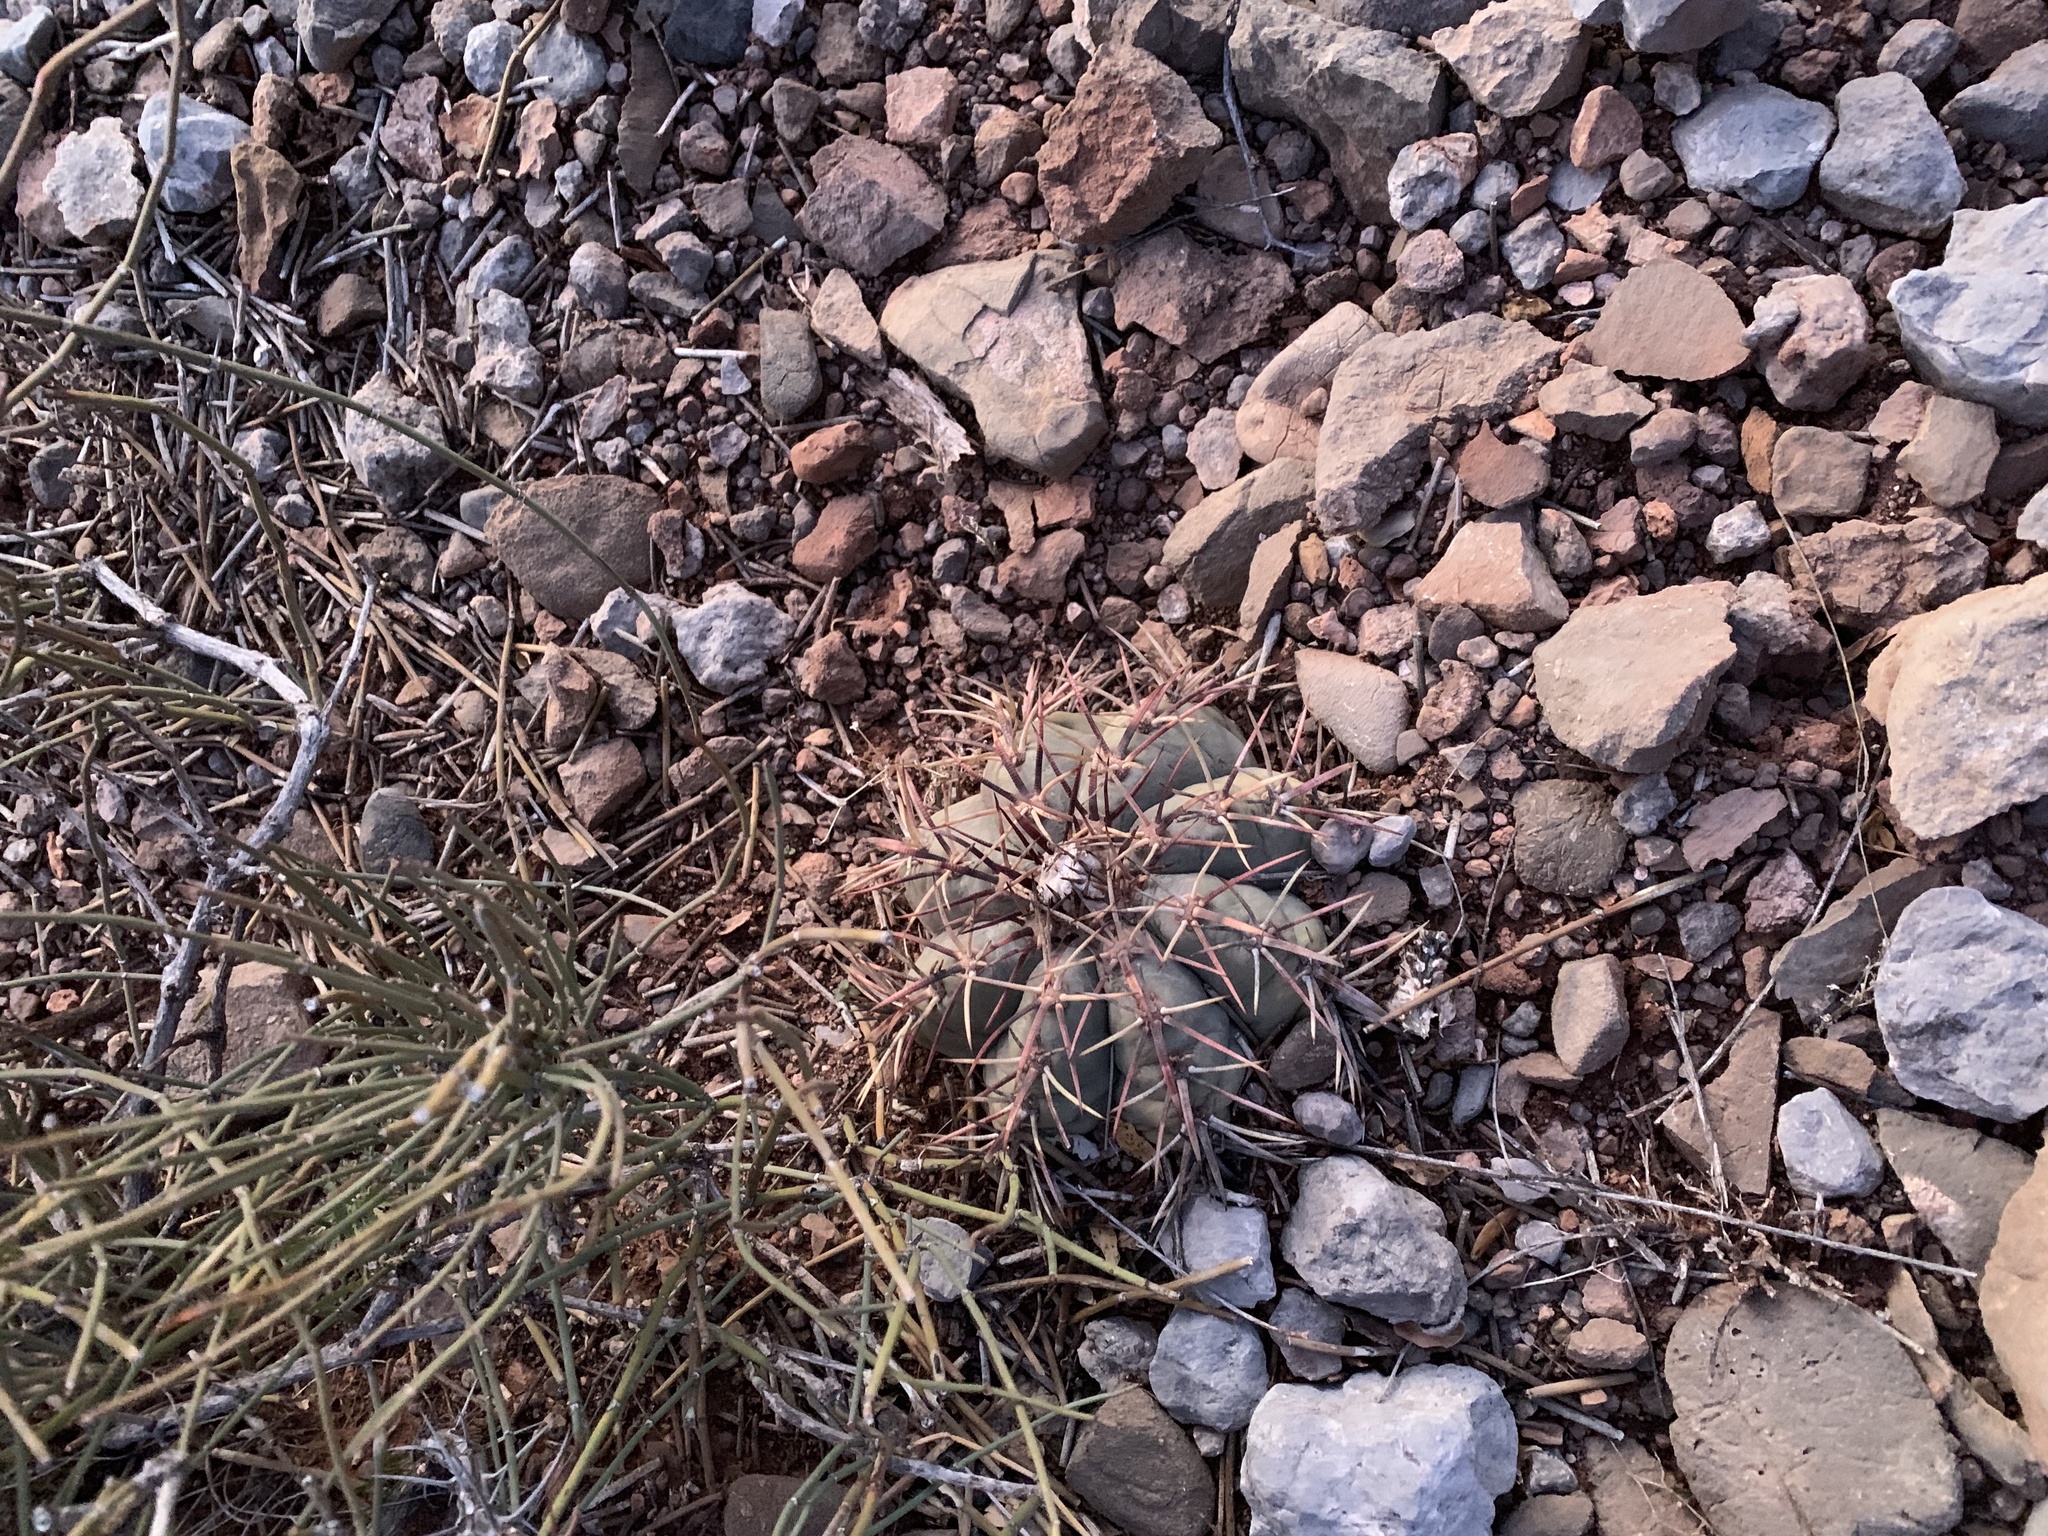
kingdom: Plantae
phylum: Tracheophyta
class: Magnoliopsida
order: Caryophyllales
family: Cactaceae
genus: Echinocactus
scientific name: Echinocactus horizonthalonius
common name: Devilshead
